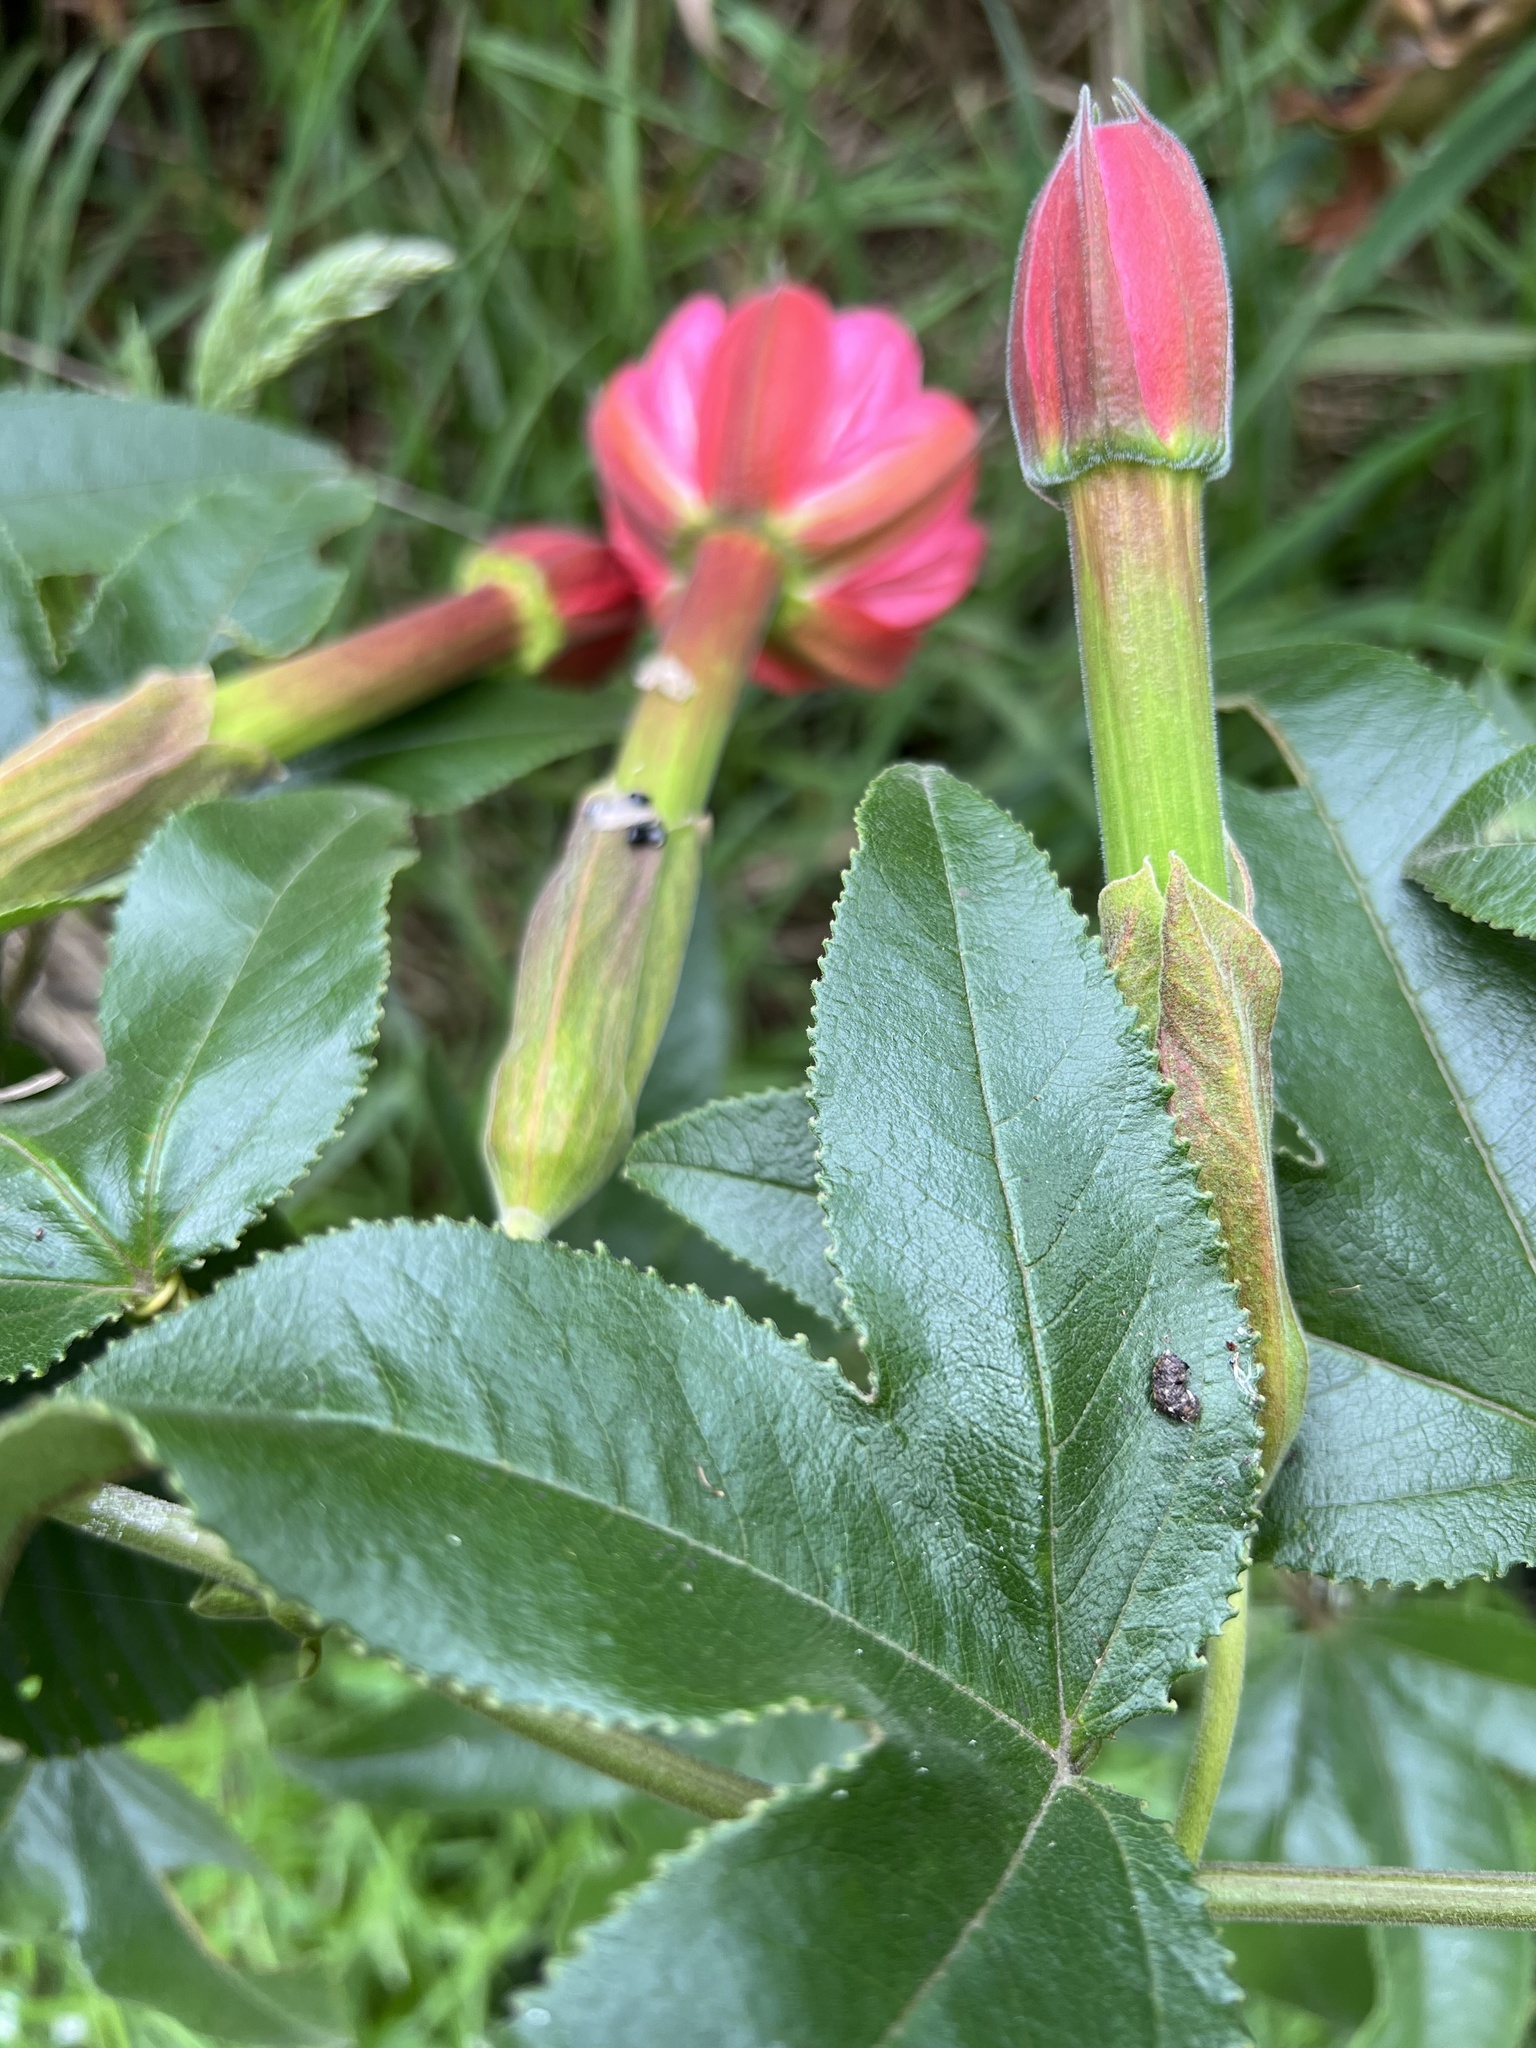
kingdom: Plantae
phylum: Tracheophyta
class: Magnoliopsida
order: Malpighiales
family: Passifloraceae
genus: Passiflora
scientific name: Passiflora mixta
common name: Passion flower
